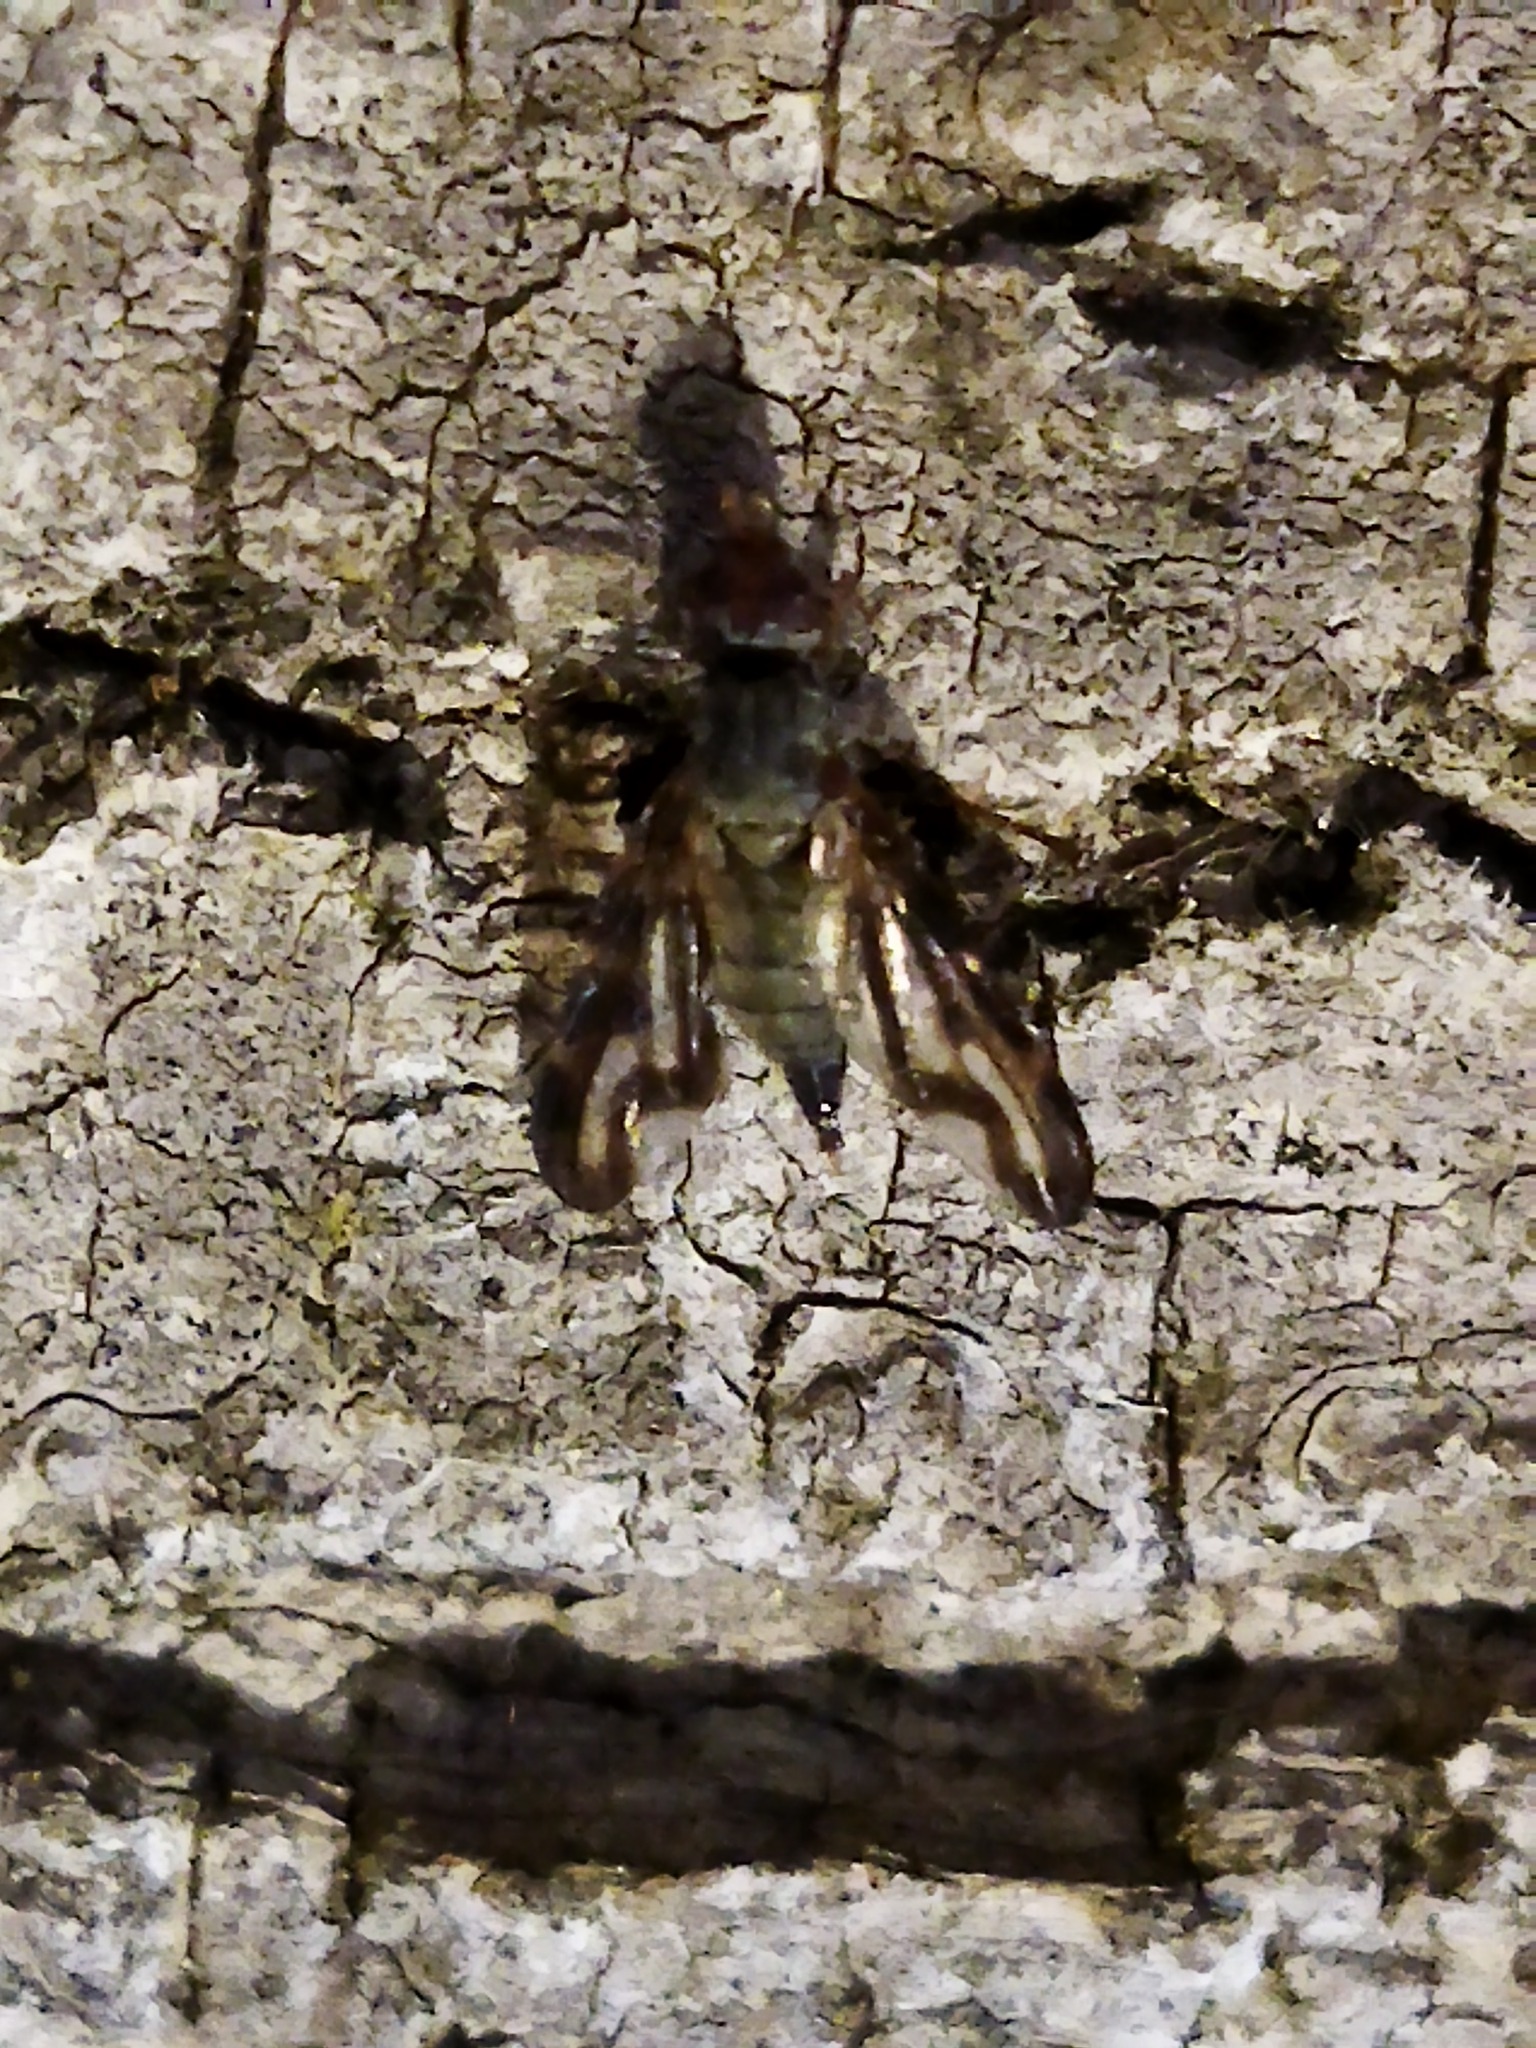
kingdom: Animalia
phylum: Arthropoda
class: Insecta
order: Diptera
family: Ulidiidae
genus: Otites
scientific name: Otites lamed
